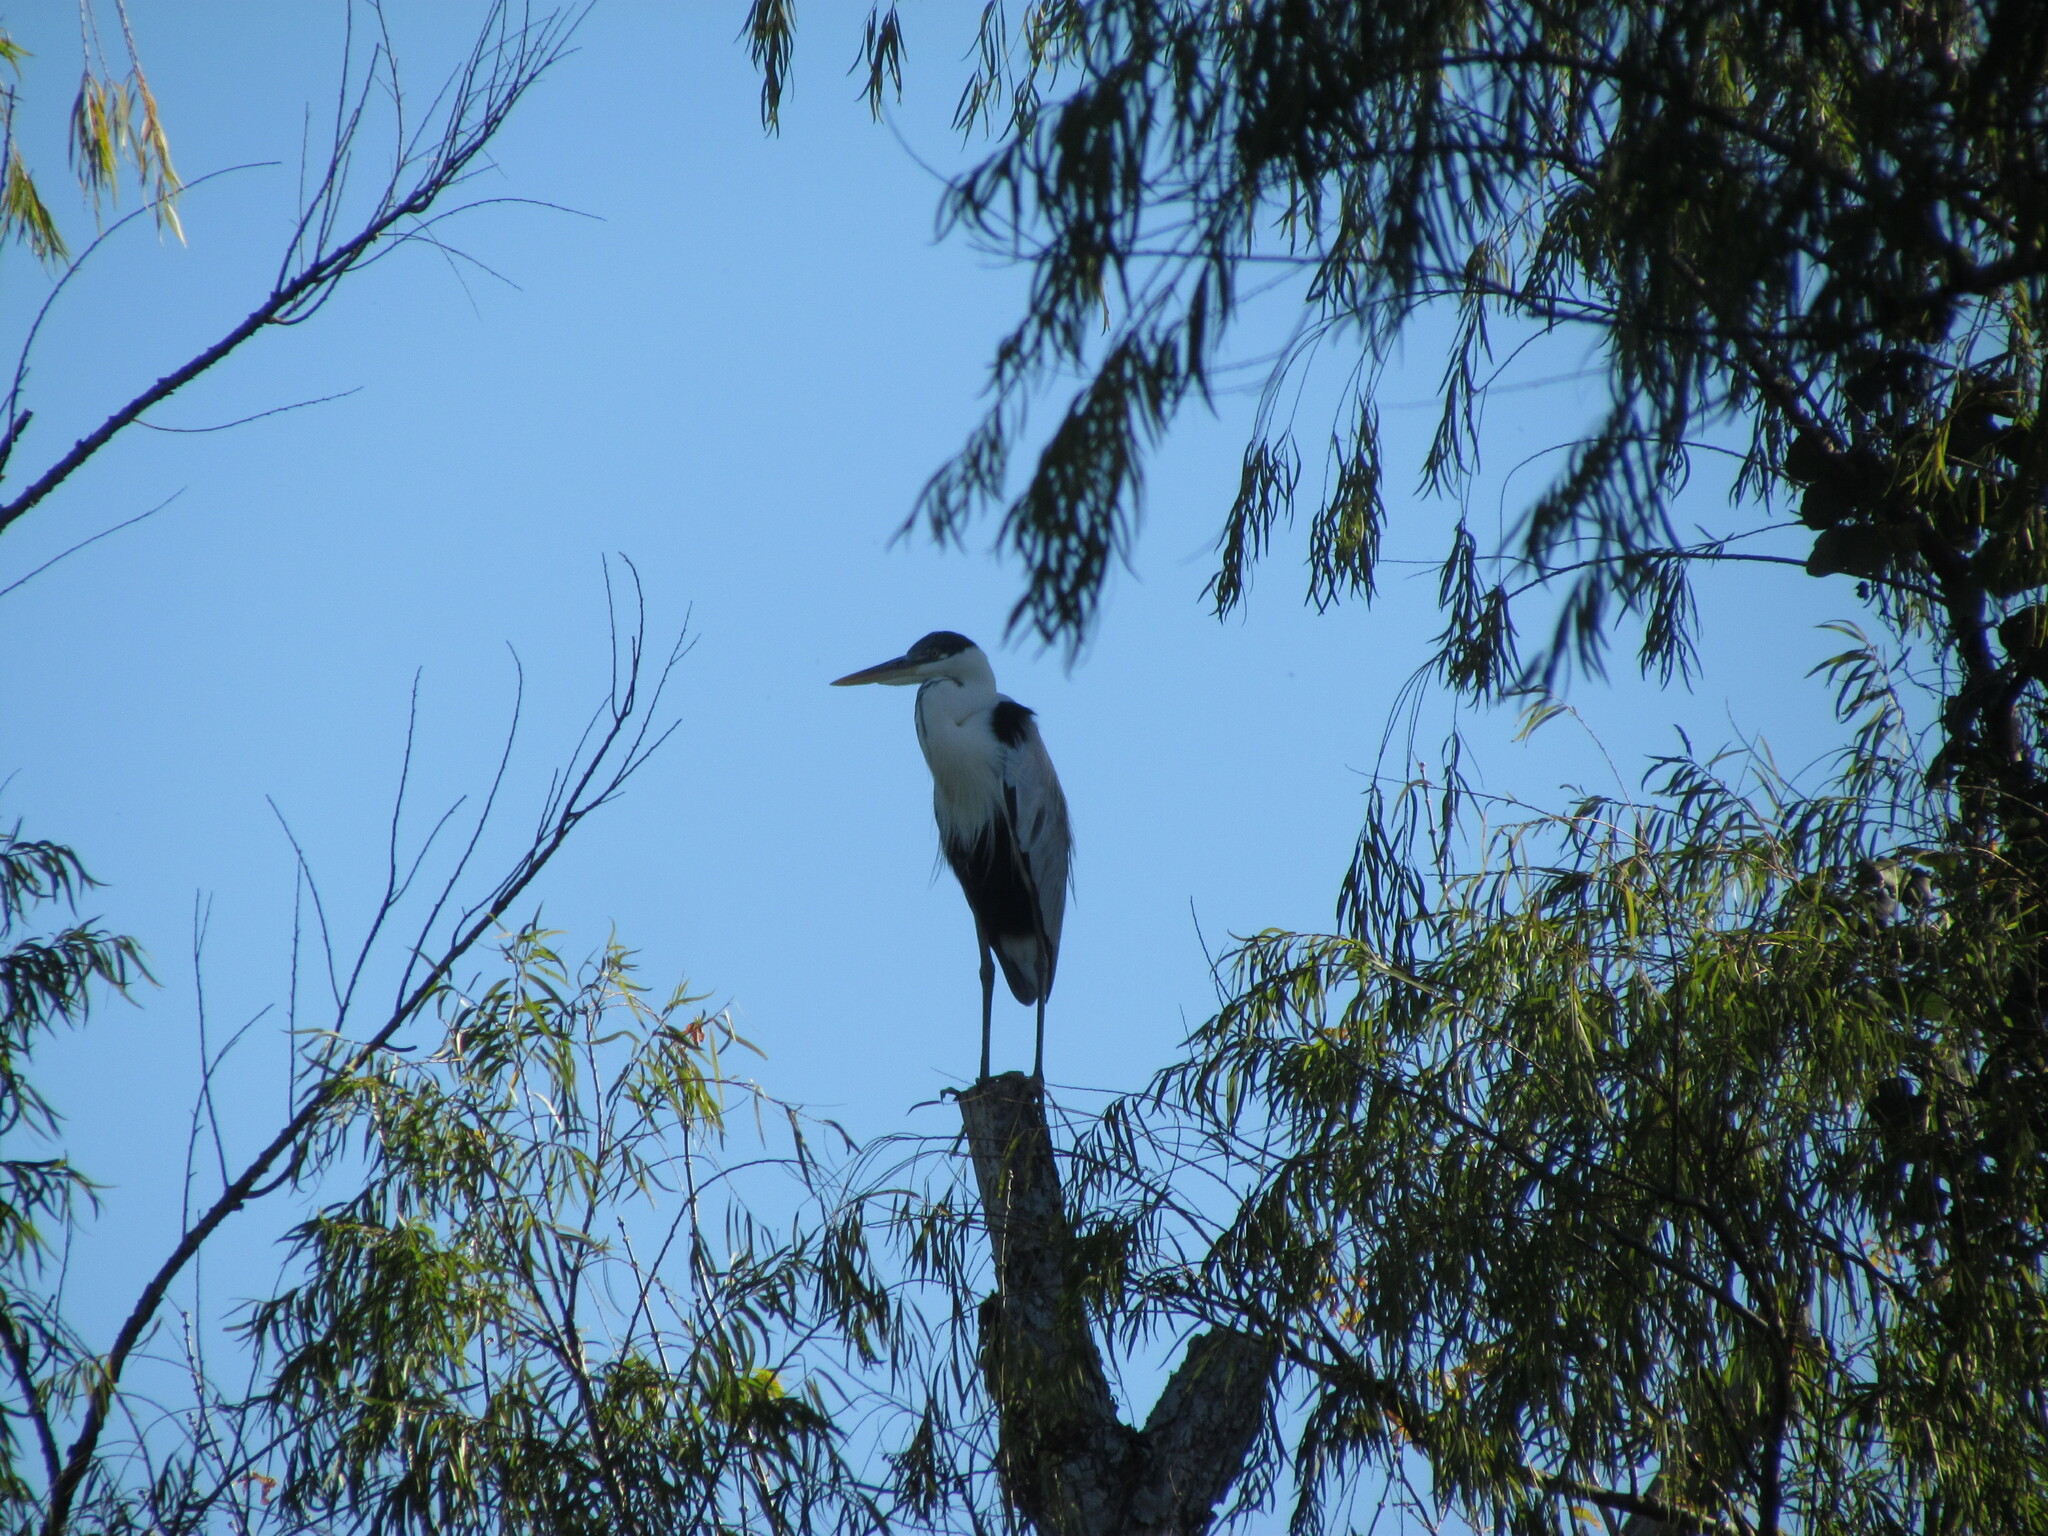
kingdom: Animalia
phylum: Chordata
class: Aves
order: Pelecaniformes
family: Ardeidae
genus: Ardea
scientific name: Ardea cocoi
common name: Cocoi heron
